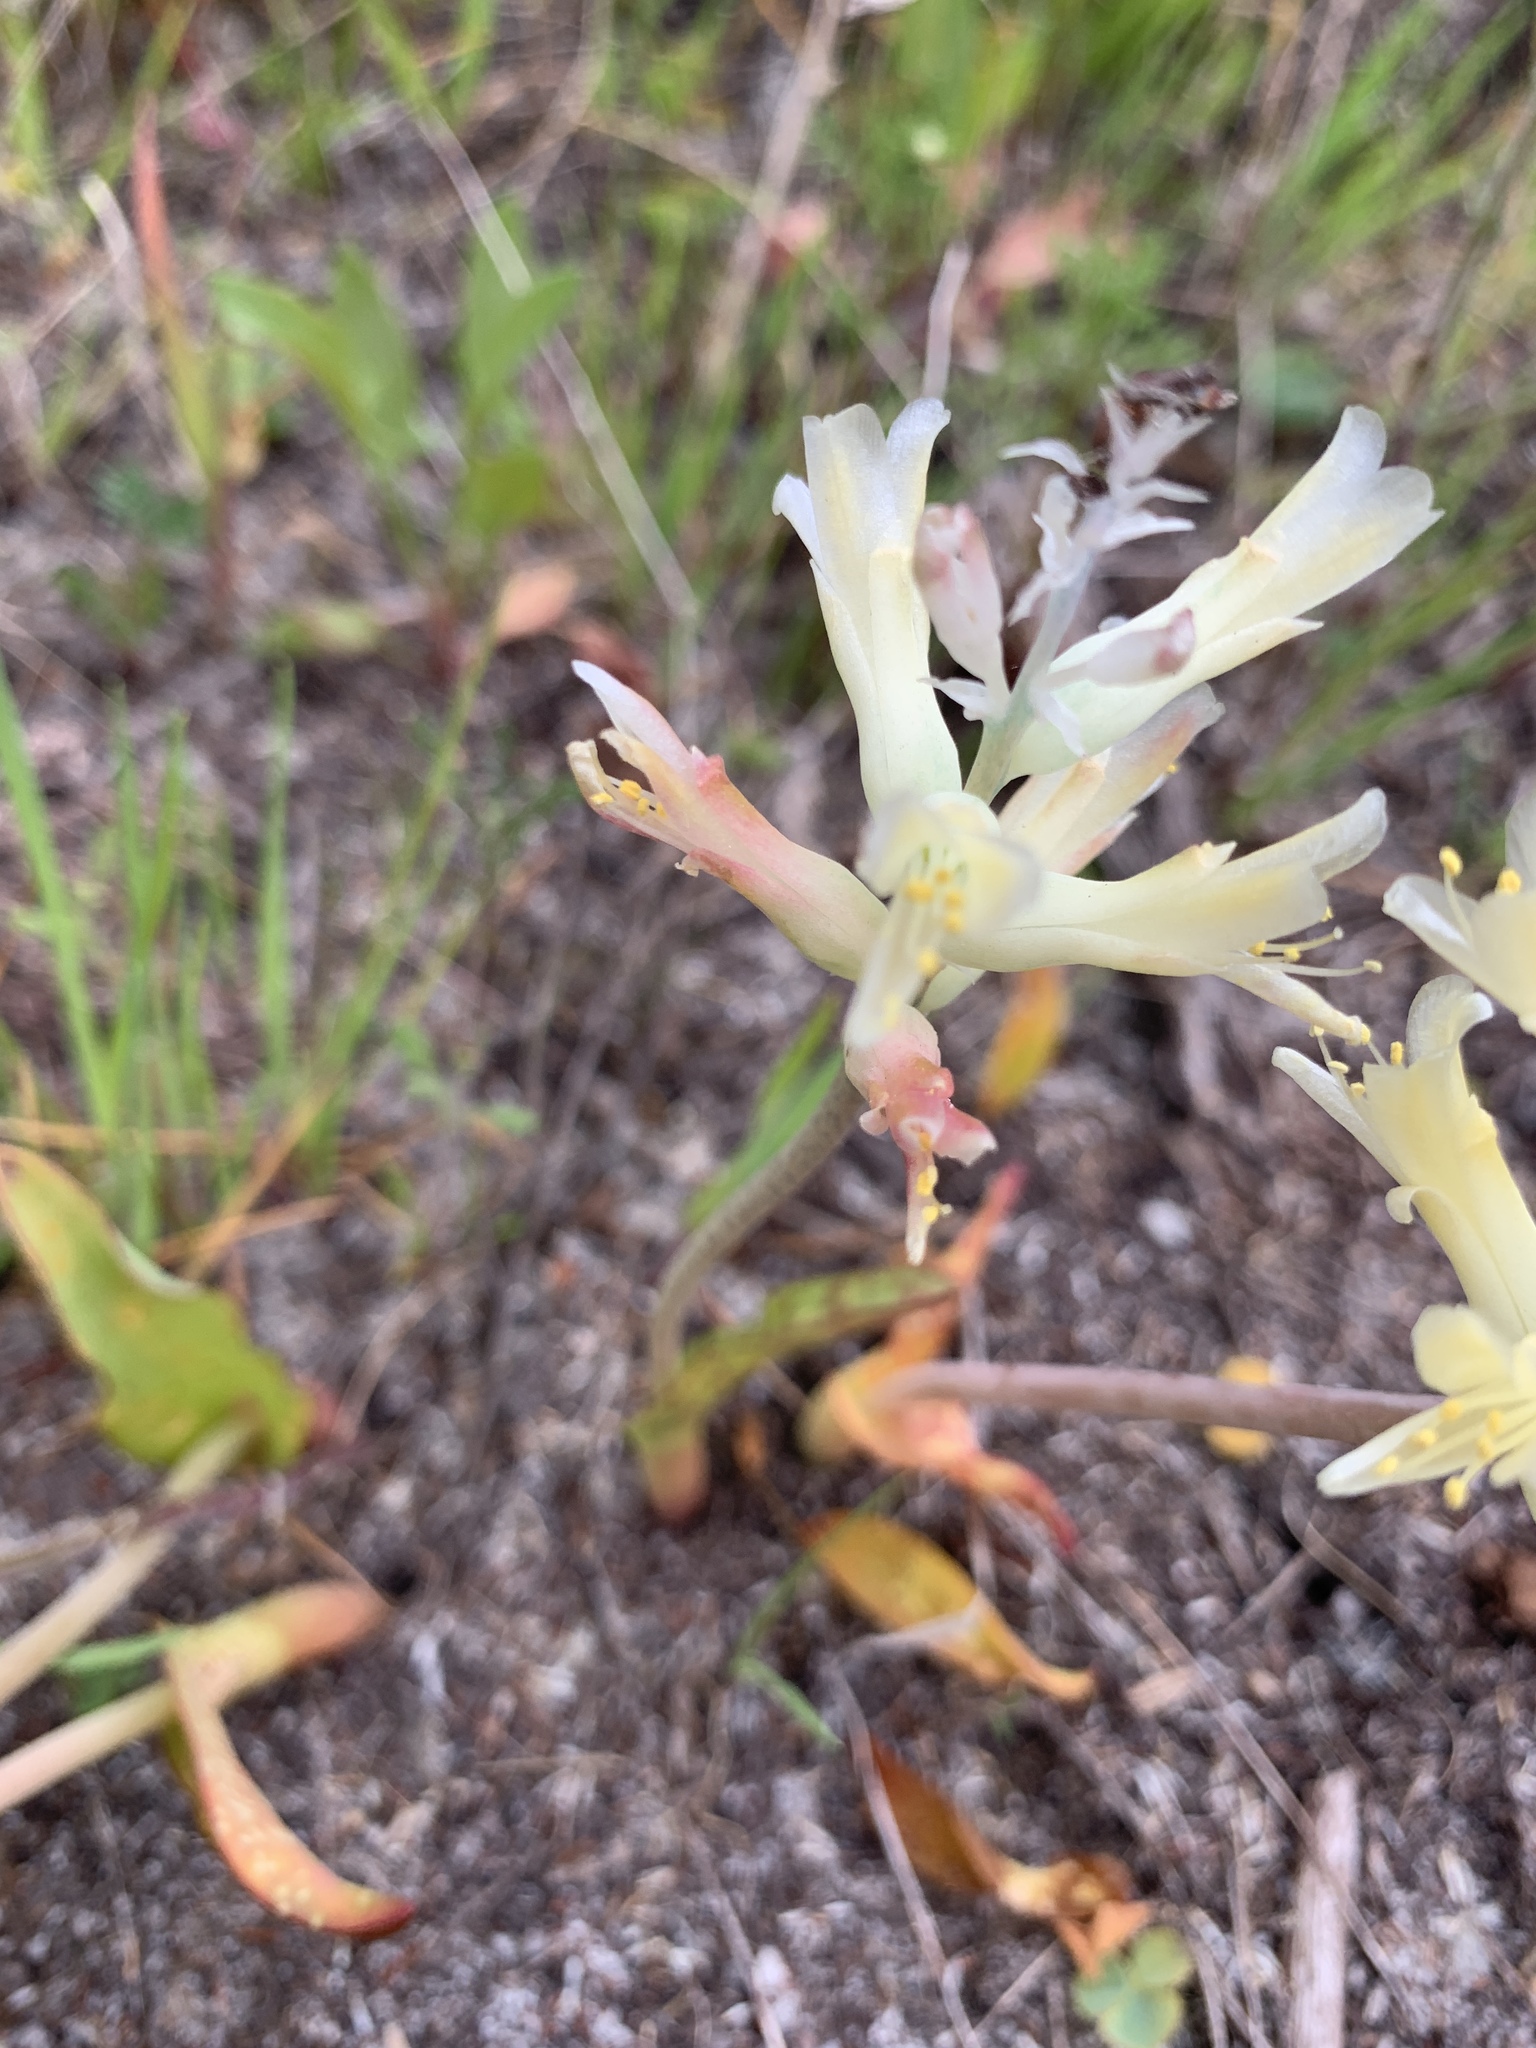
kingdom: Plantae
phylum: Tracheophyta
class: Liliopsida
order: Asparagales
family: Asparagaceae
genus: Lachenalia
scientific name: Lachenalia orchioides
